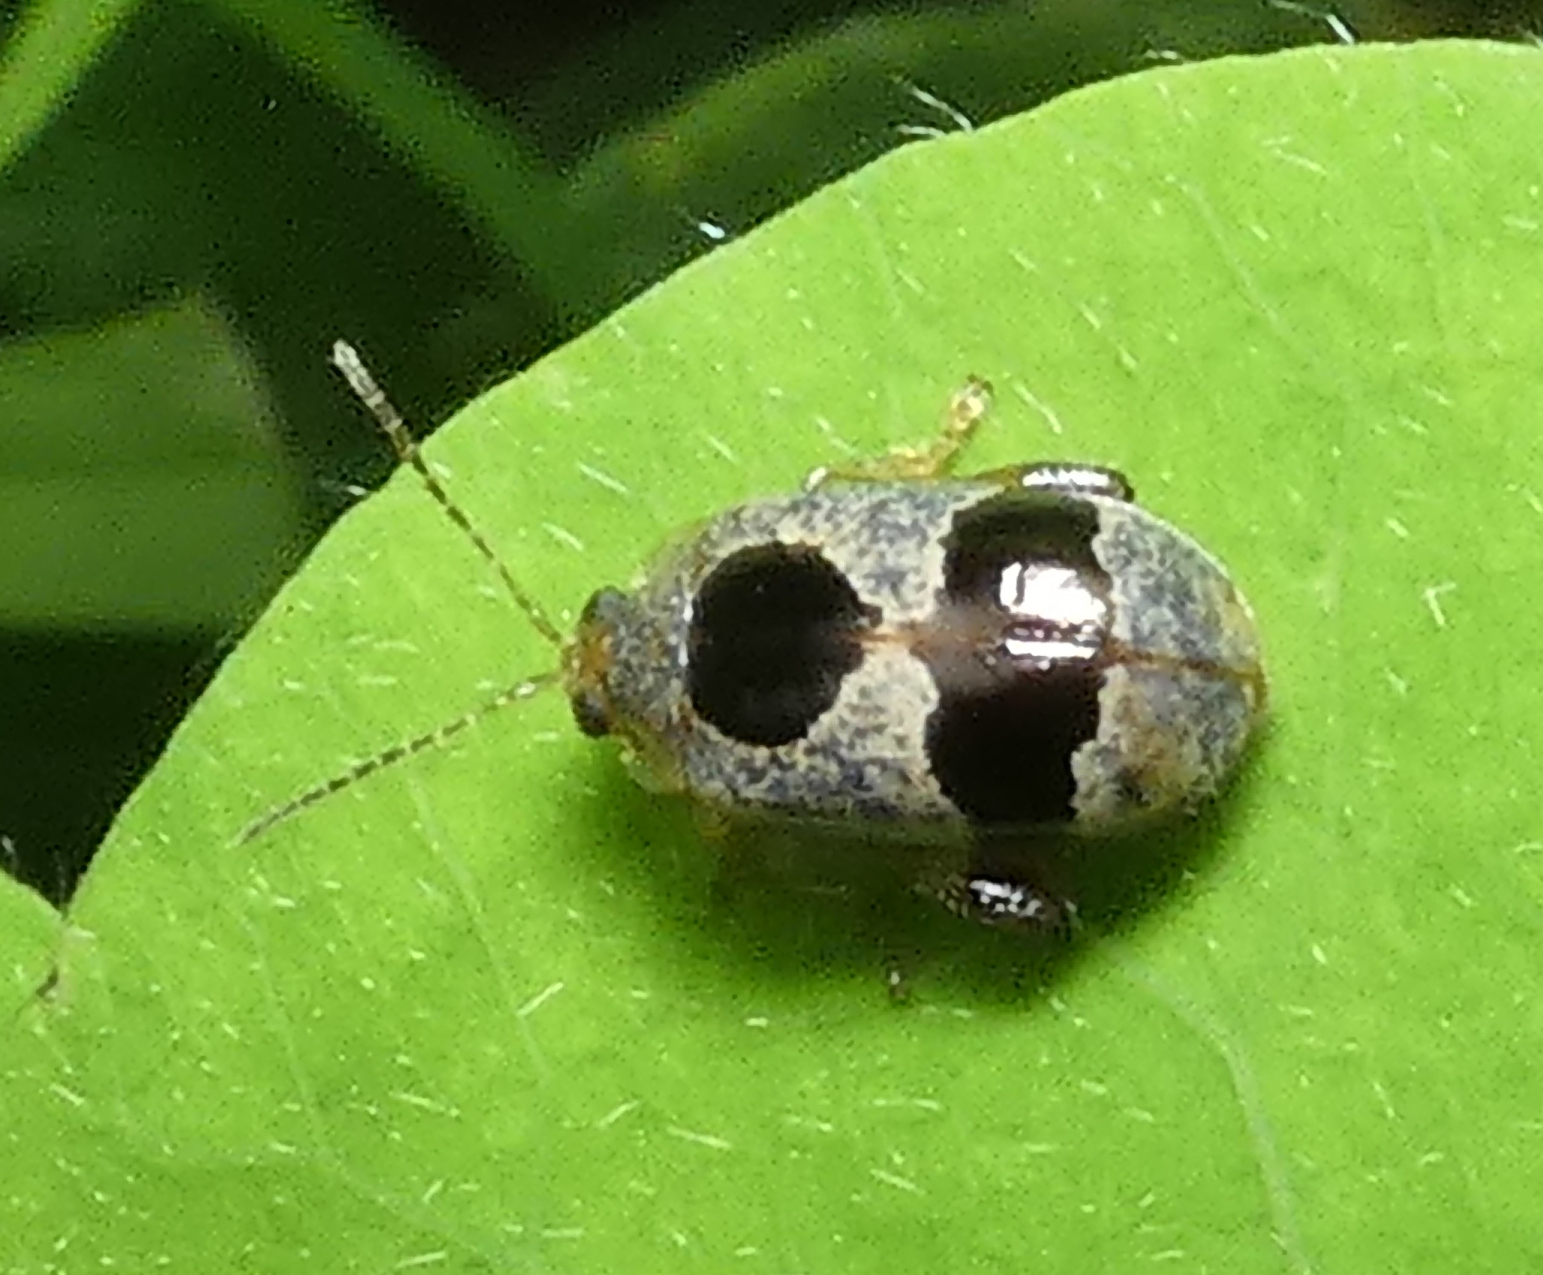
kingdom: Animalia
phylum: Arthropoda
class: Insecta
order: Coleoptera
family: Chrysomelidae
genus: Alagoasa
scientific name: Alagoasa
